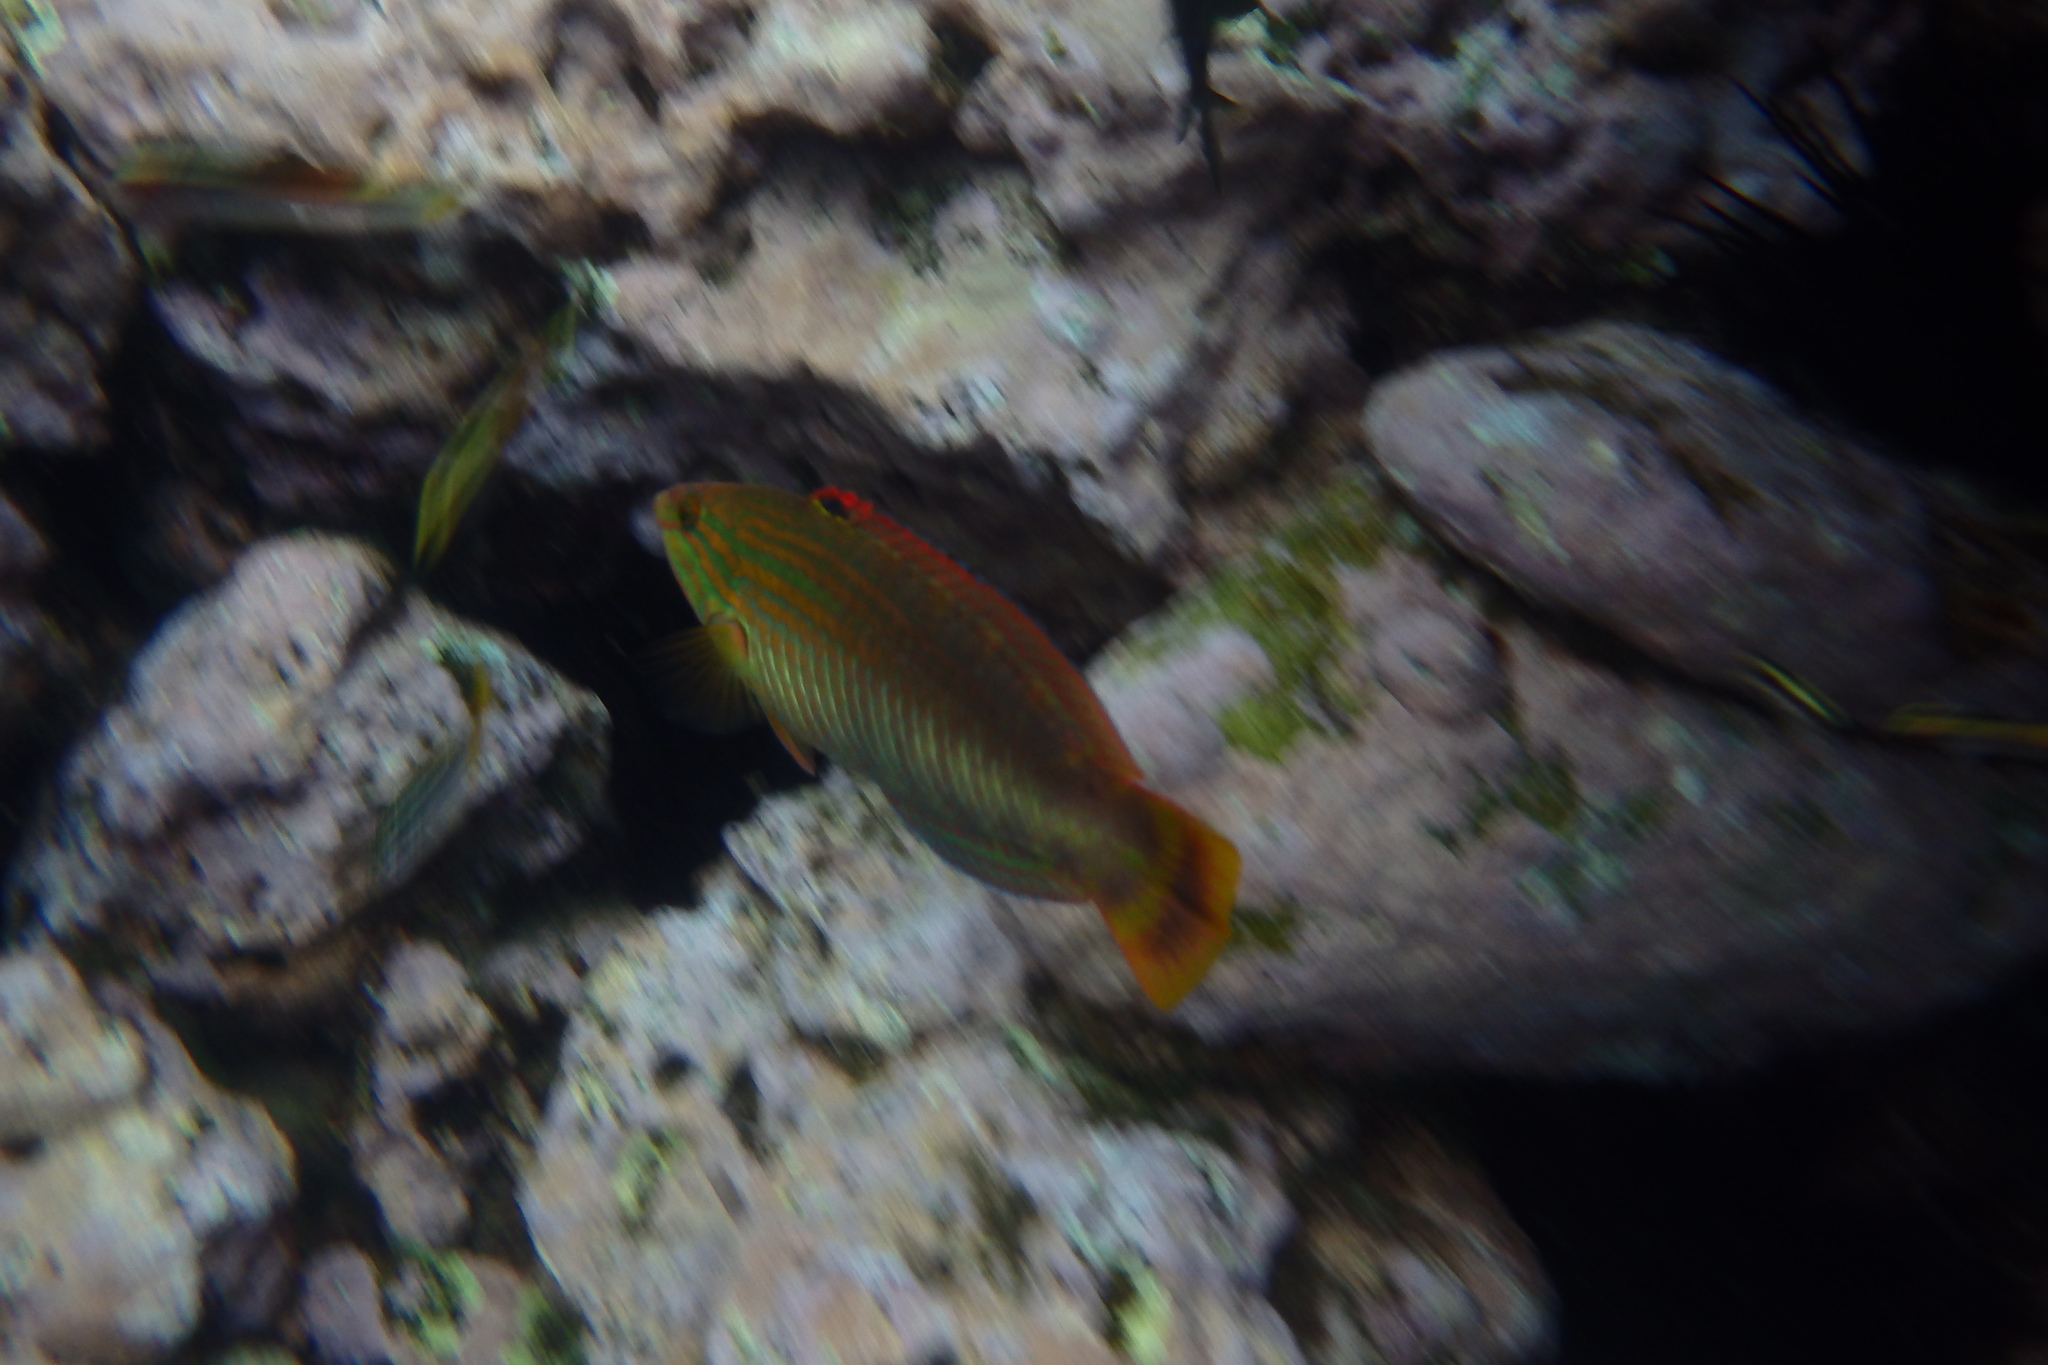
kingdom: Animalia
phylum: Chordata
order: Perciformes
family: Labridae
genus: Pseudolabrus
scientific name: Pseudolabrus guentheri
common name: Günther's wrasse
